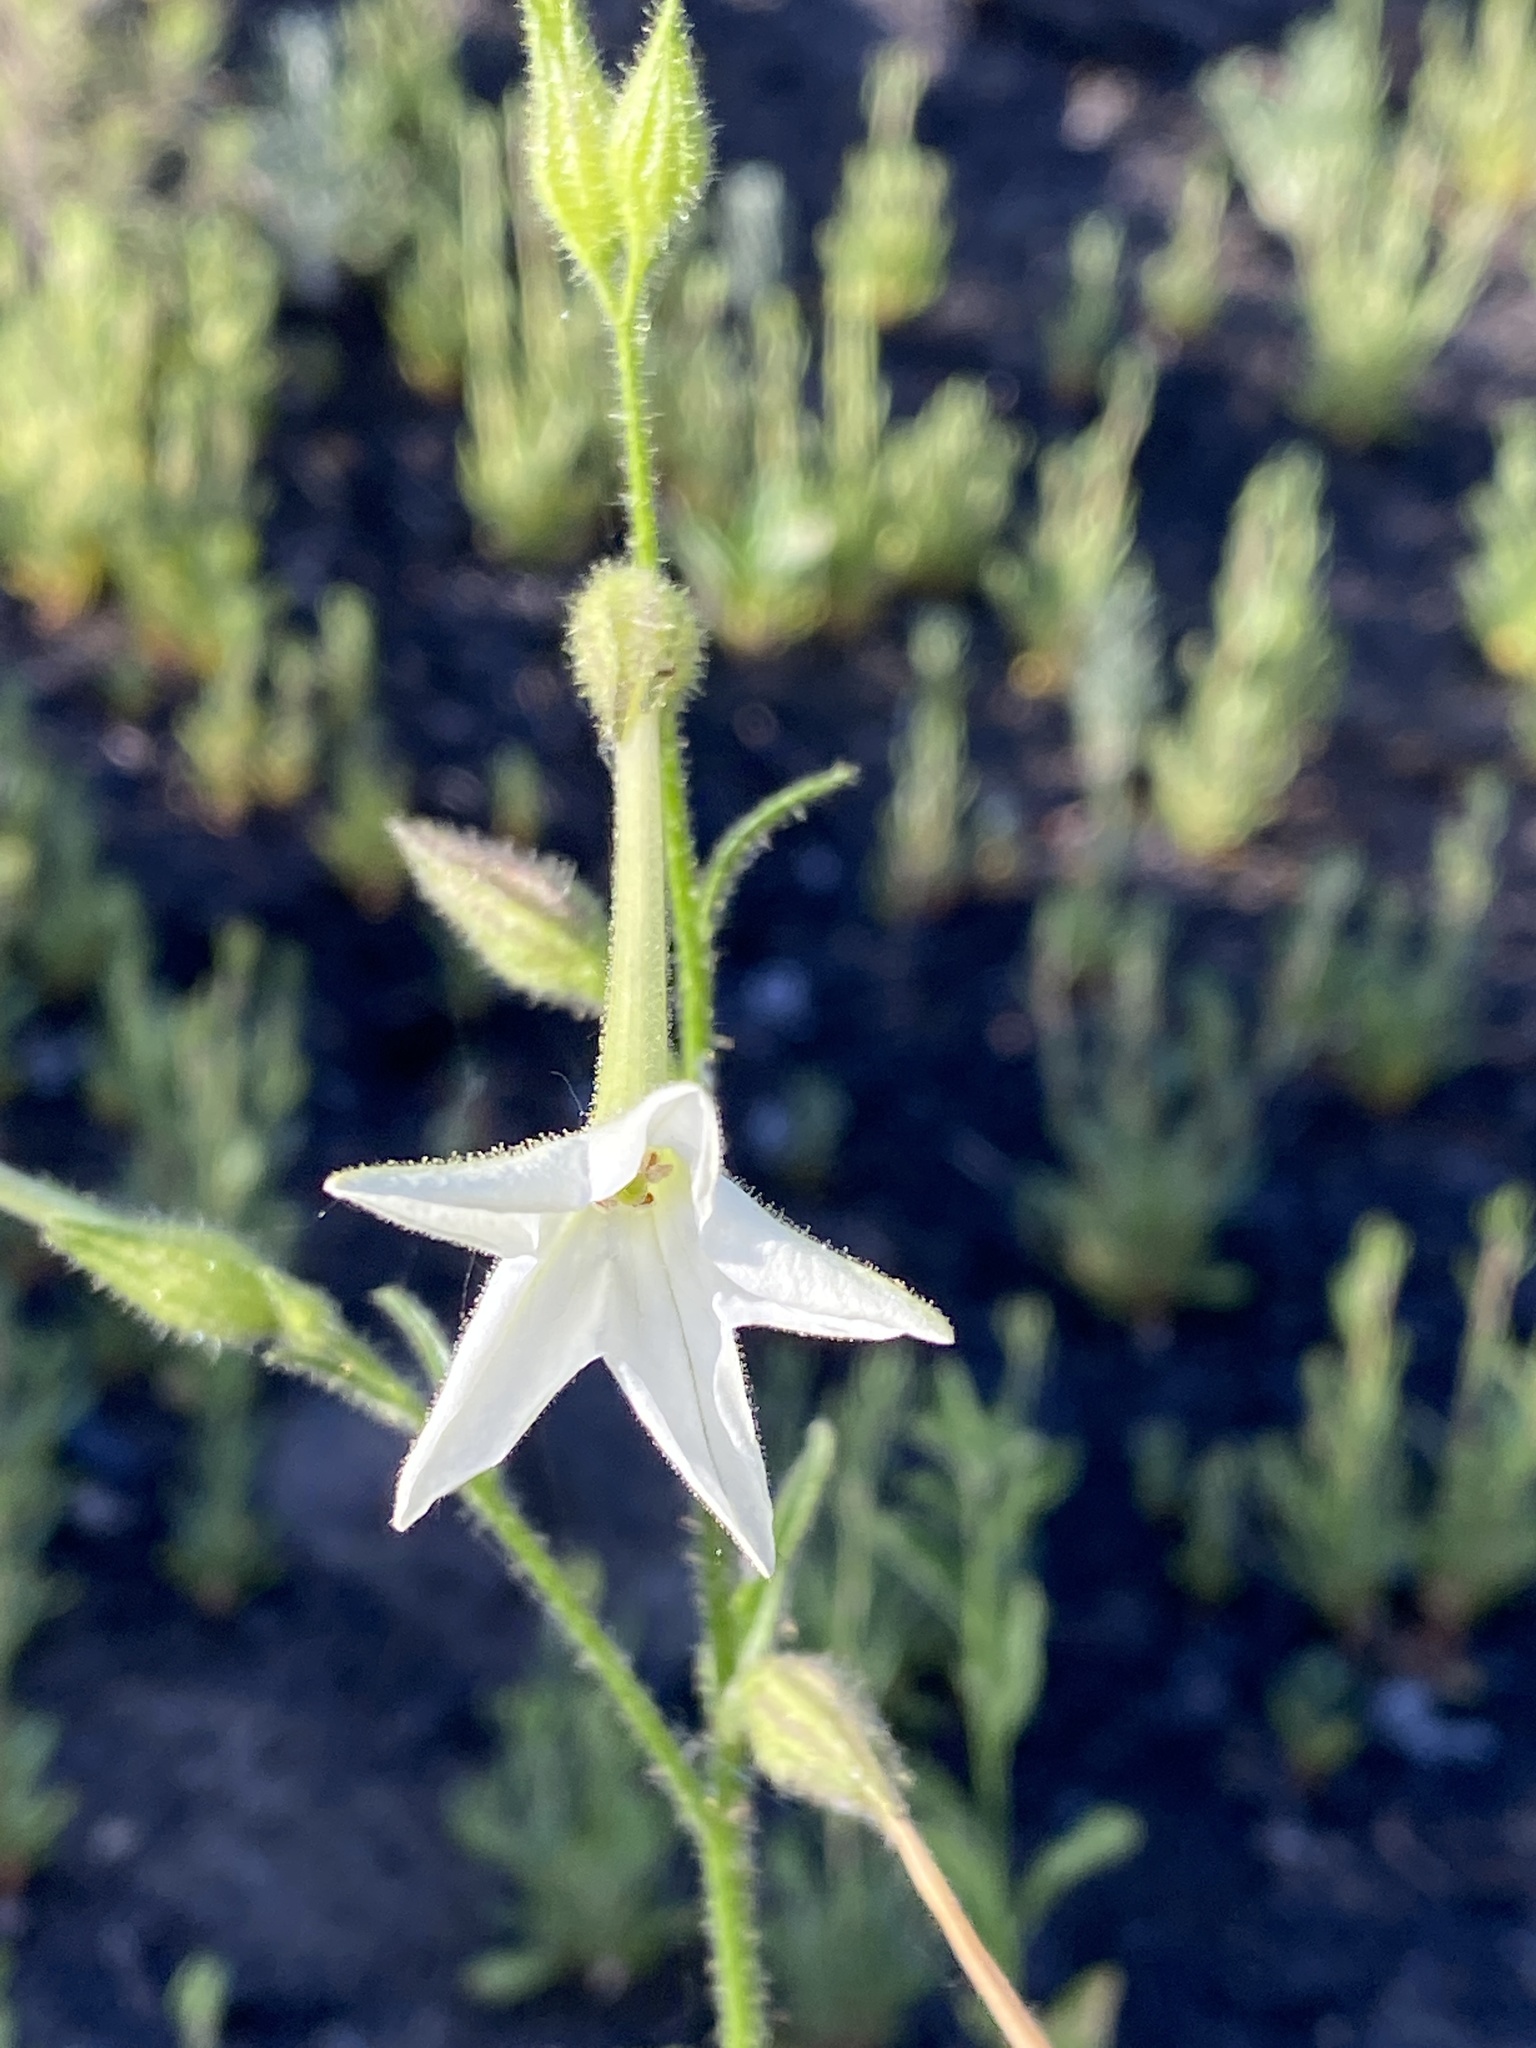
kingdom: Plantae
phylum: Tracheophyta
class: Magnoliopsida
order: Solanales
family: Solanaceae
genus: Nicotiana
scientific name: Nicotiana quadrivalvis
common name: Indian tobacco
